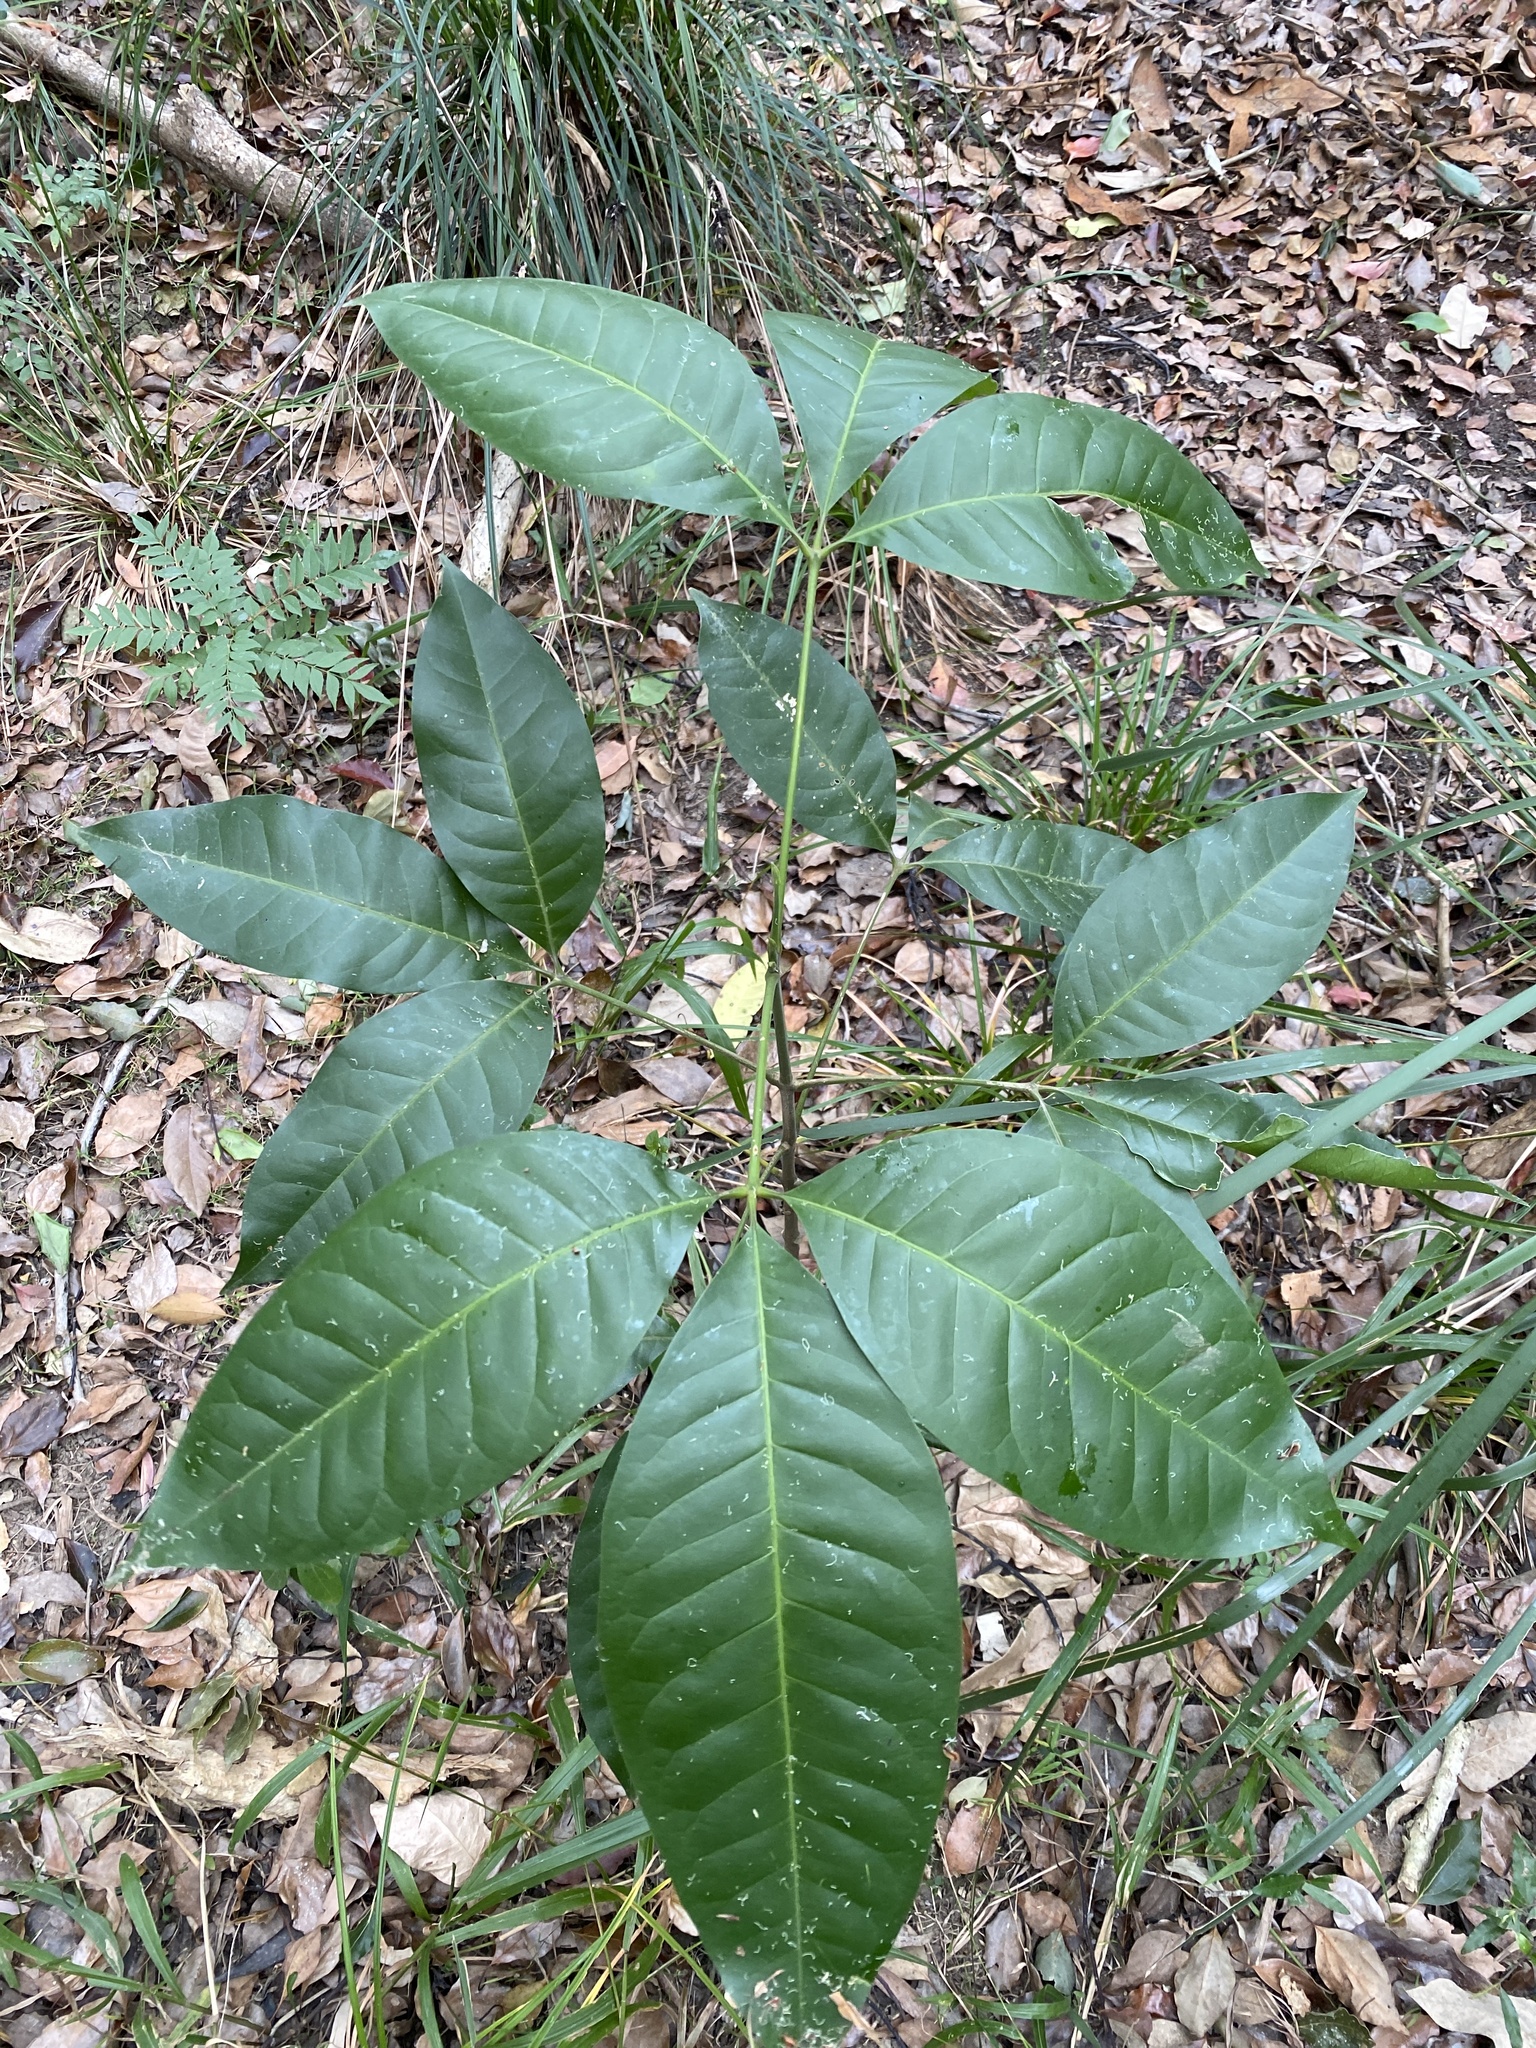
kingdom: Plantae
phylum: Tracheophyta
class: Magnoliopsida
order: Sapindales
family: Rutaceae
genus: Melicope
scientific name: Melicope elleryana
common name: Pink euodia
